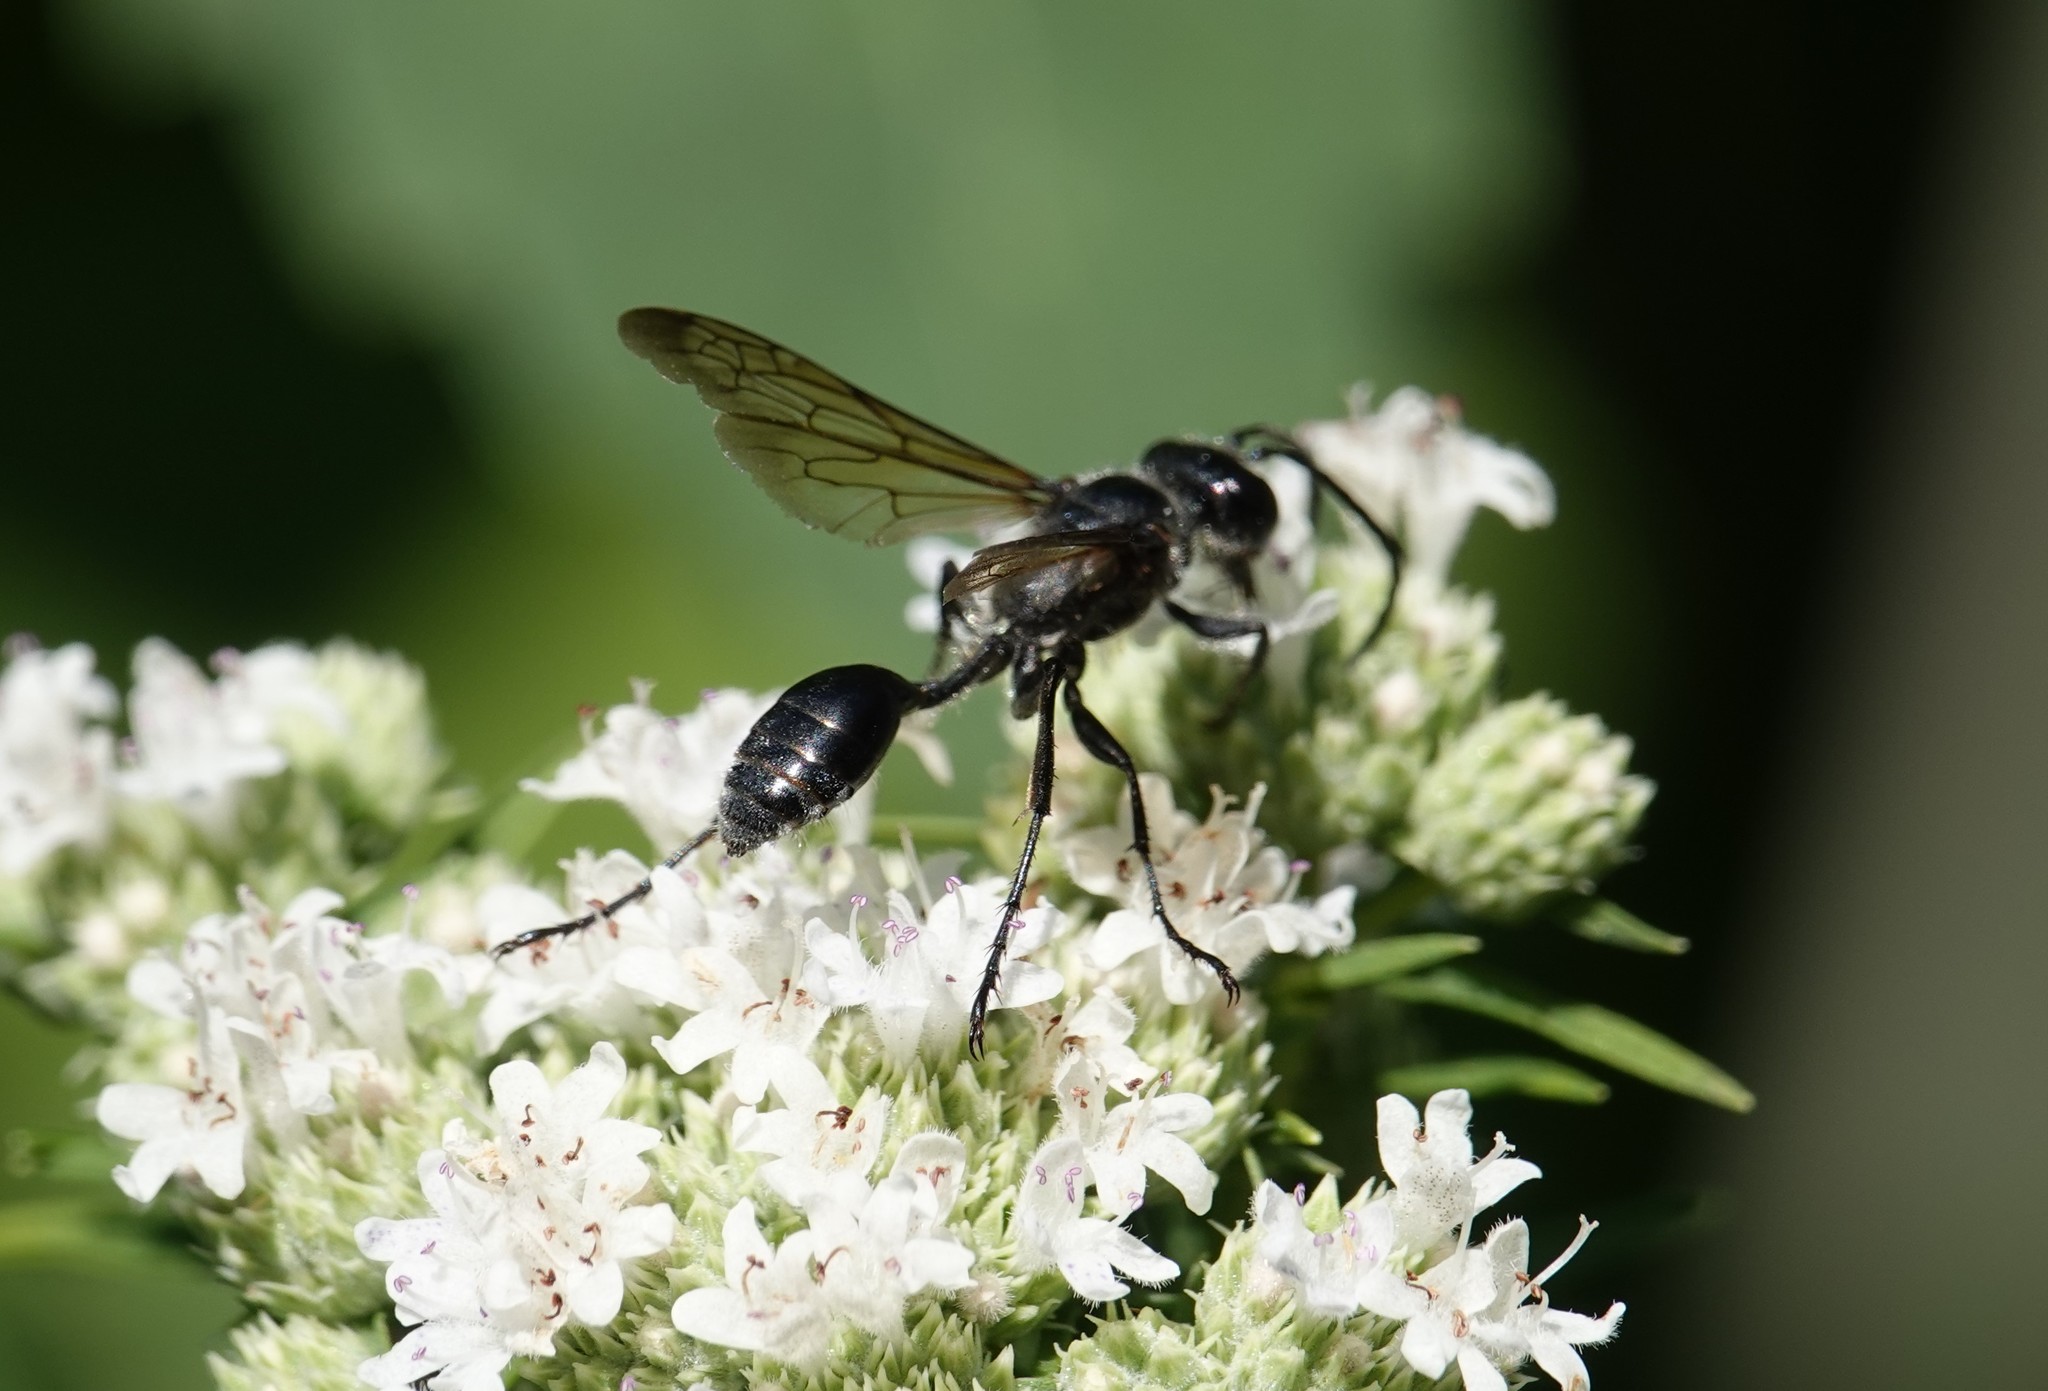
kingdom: Animalia
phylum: Arthropoda
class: Insecta
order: Hymenoptera
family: Sphecidae
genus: Isodontia
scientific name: Isodontia mexicana
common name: Mud dauber
